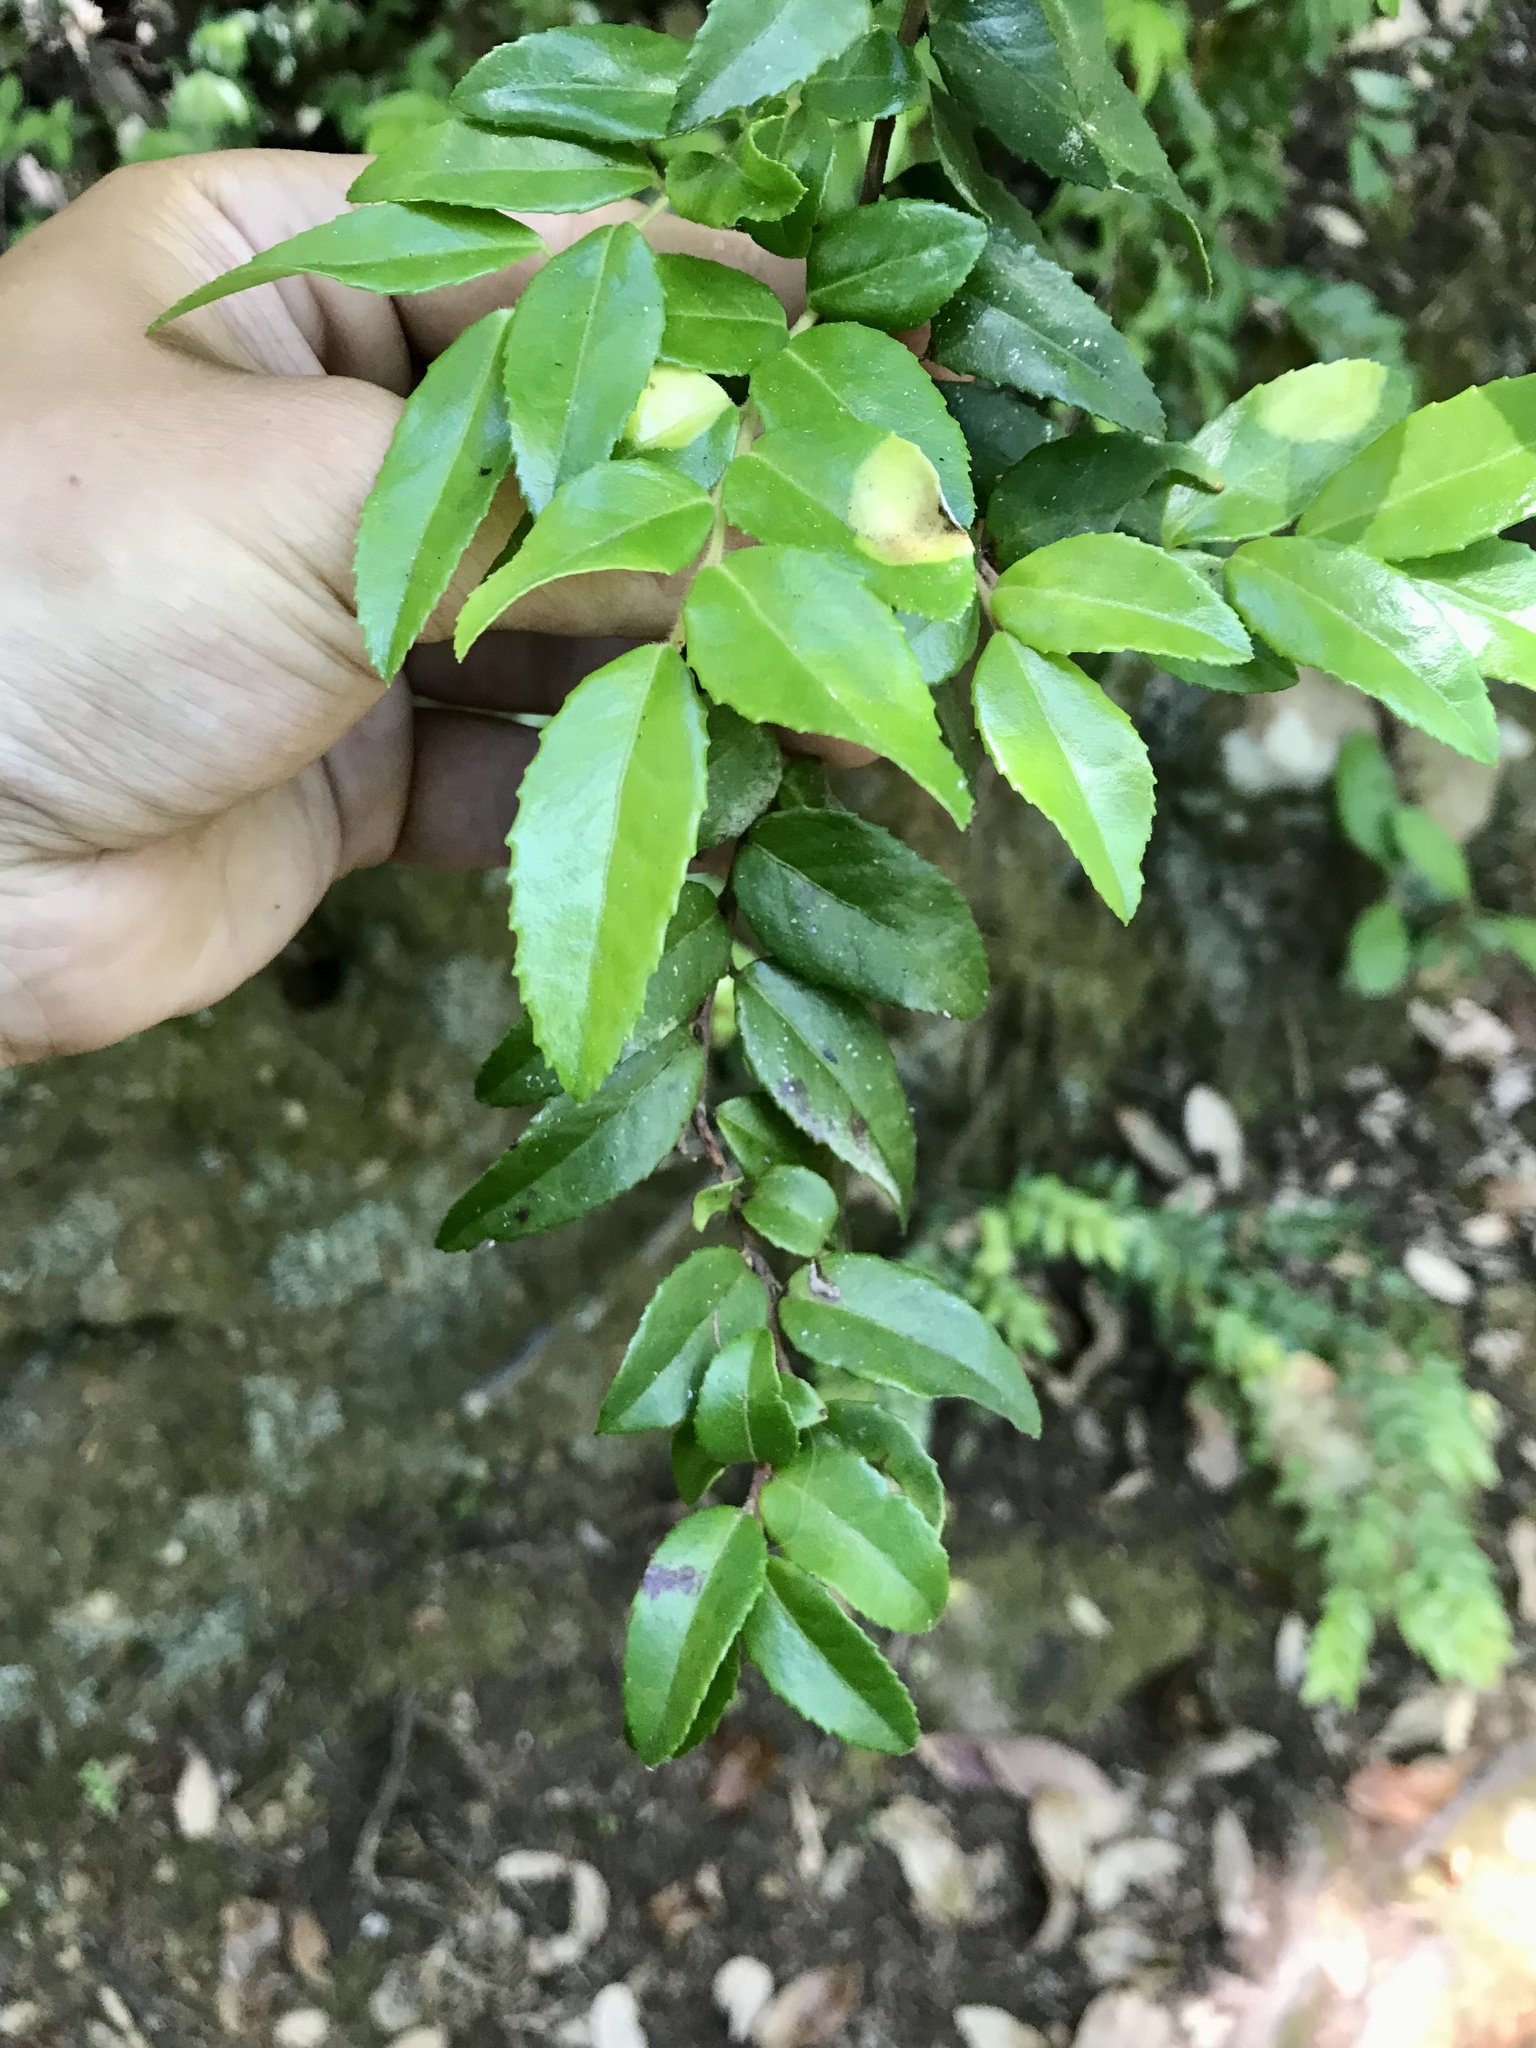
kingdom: Plantae
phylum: Tracheophyta
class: Magnoliopsida
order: Ericales
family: Ericaceae
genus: Vaccinium
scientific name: Vaccinium ovatum
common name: California-huckleberry
